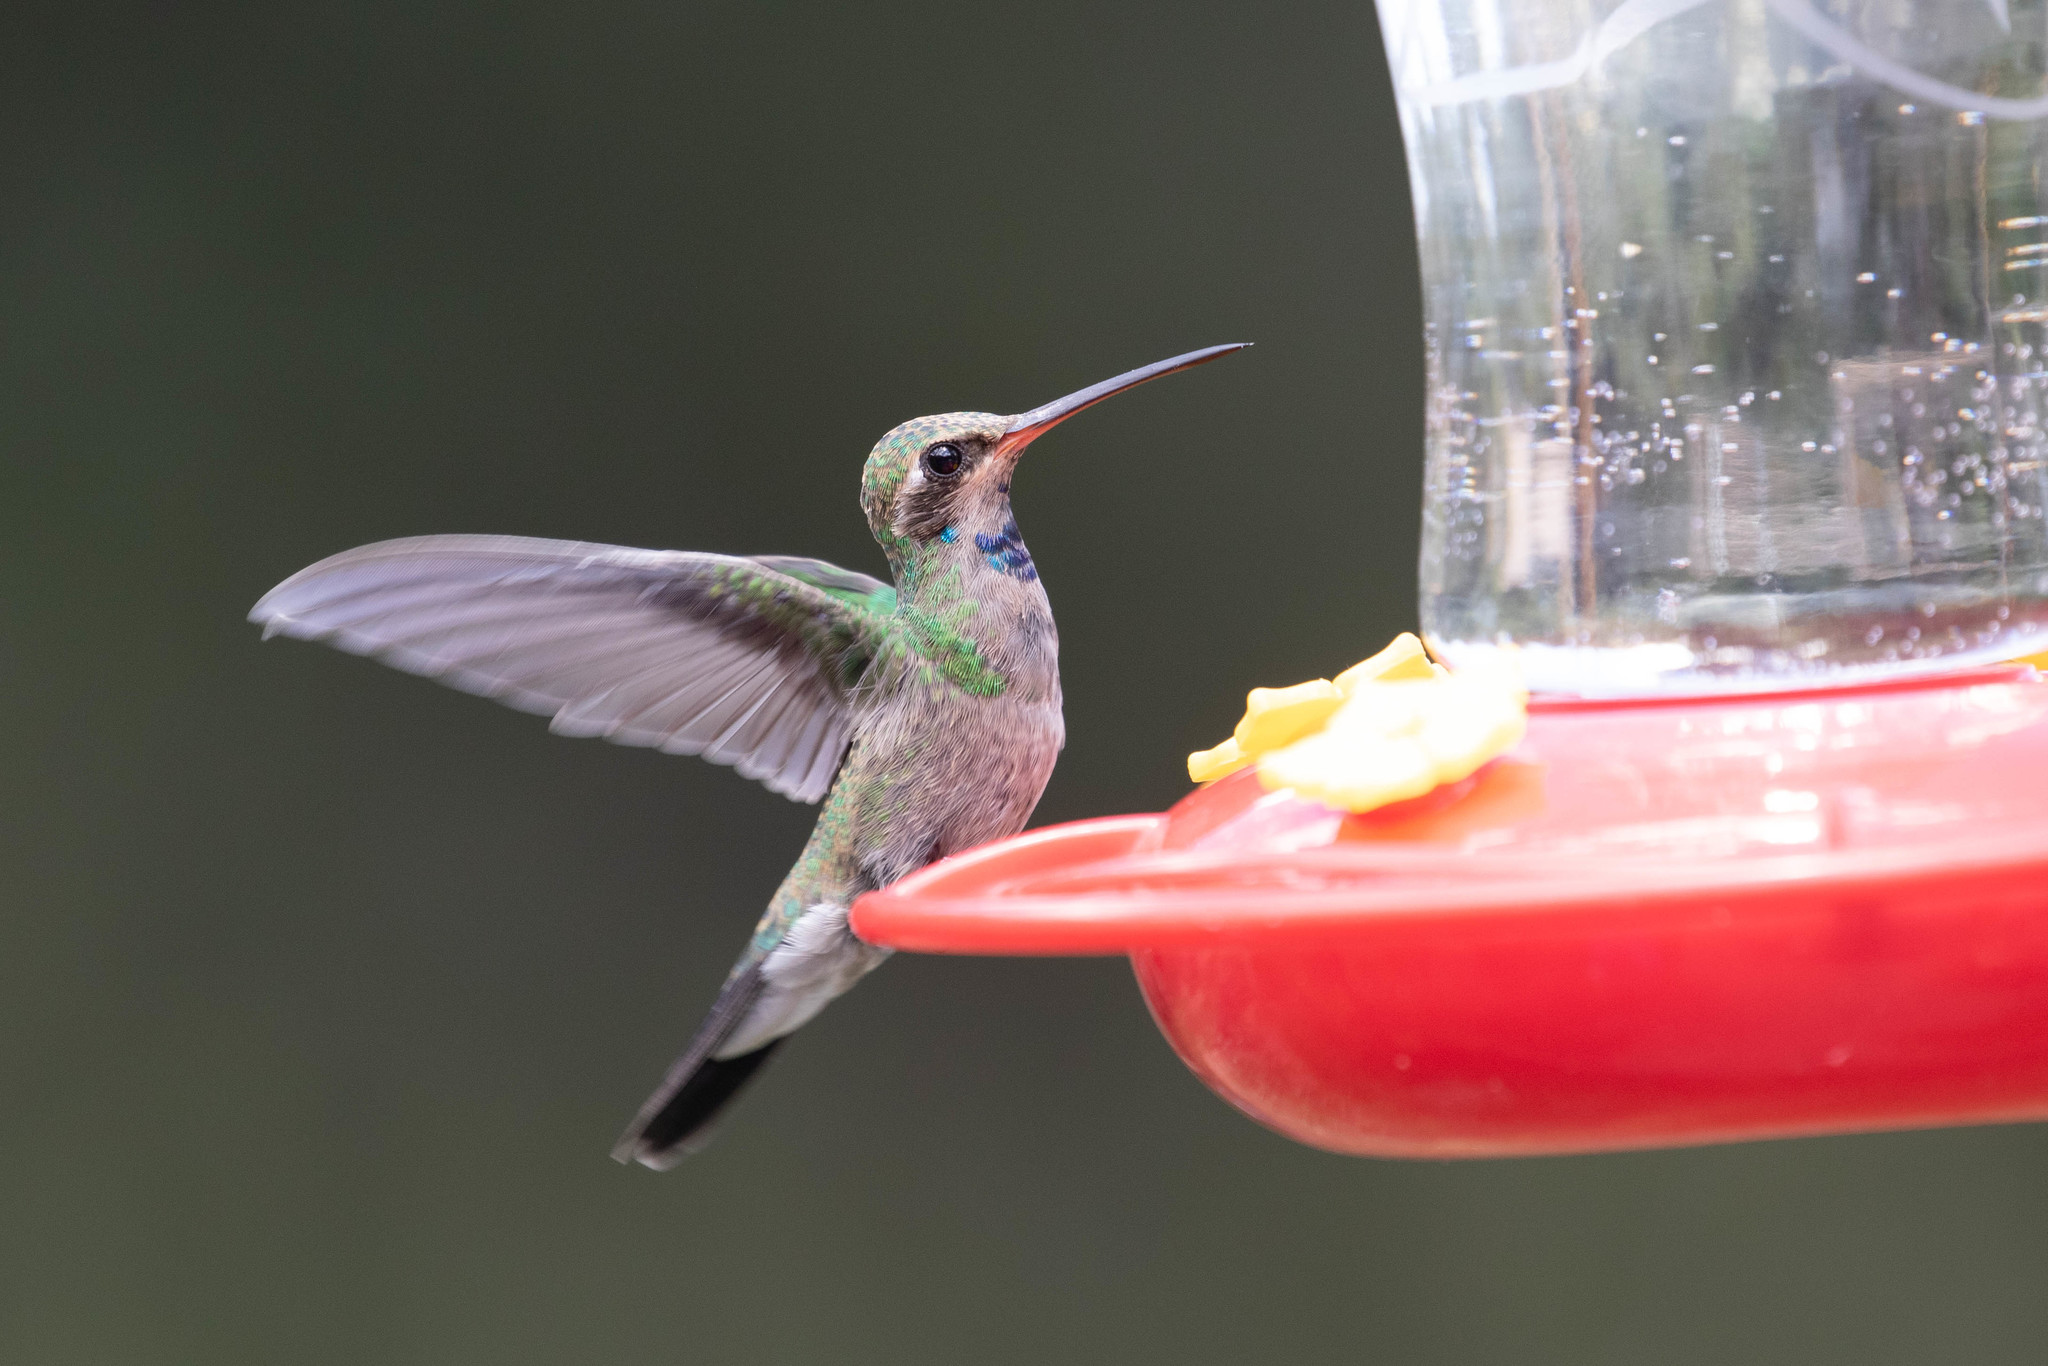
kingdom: Animalia
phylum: Chordata
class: Aves
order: Apodiformes
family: Trochilidae
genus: Cynanthus
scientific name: Cynanthus latirostris
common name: Broad-billed hummingbird
